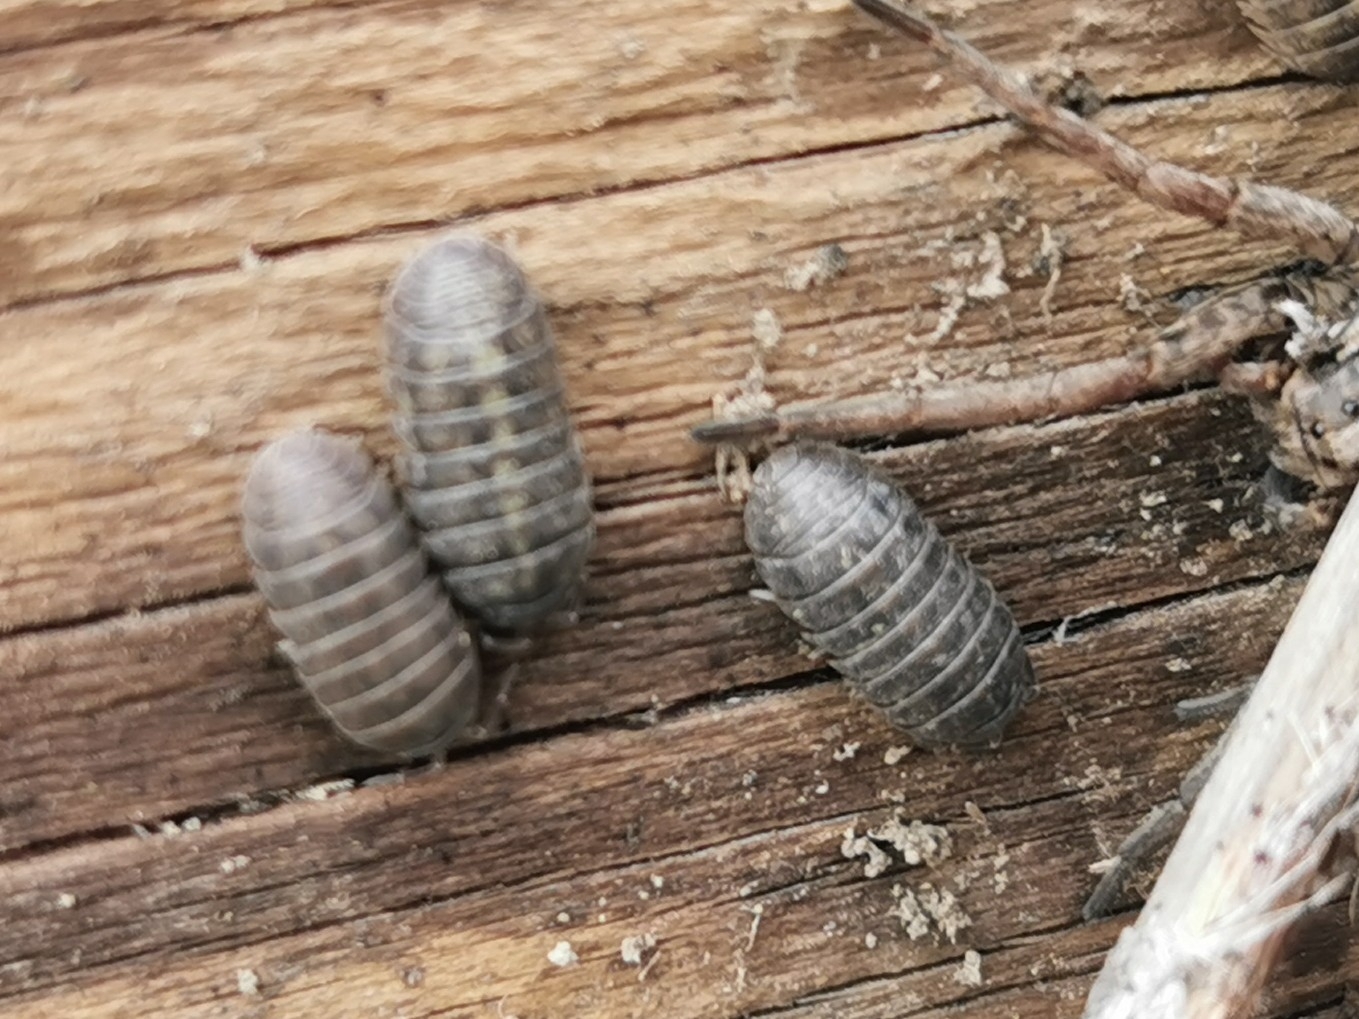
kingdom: Animalia
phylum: Arthropoda
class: Malacostraca
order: Isopoda
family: Armadillidiidae
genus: Armadillidium
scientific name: Armadillidium vulgare
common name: Common pill woodlouse
